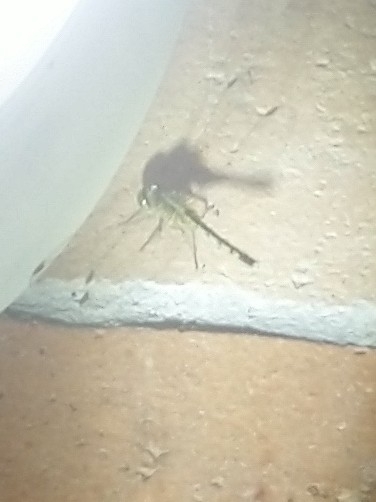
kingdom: Animalia
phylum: Arthropoda
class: Insecta
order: Odonata
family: Libellulidae
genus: Diplacodes
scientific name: Diplacodes trivialis
